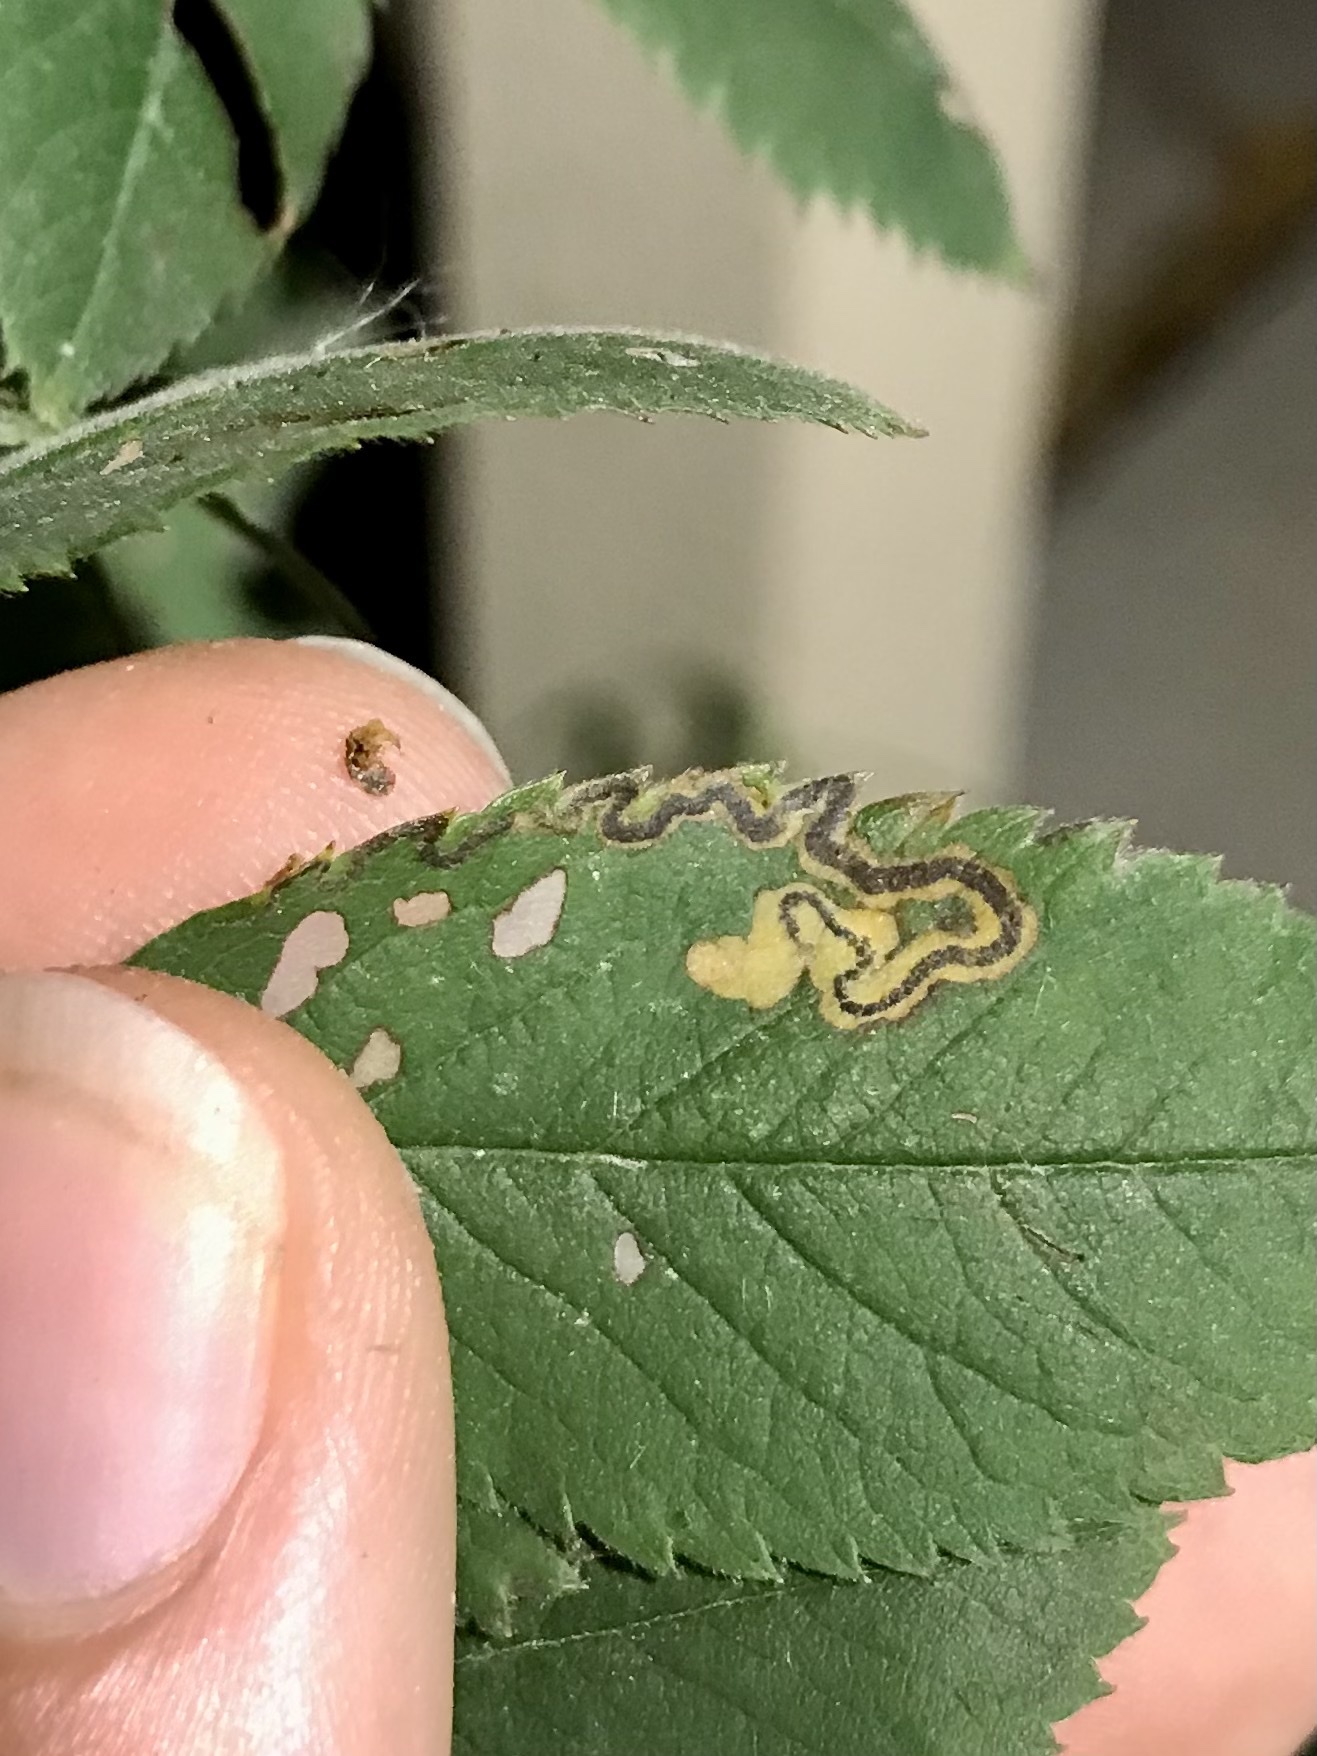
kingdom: Animalia
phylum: Arthropoda
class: Insecta
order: Lepidoptera
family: Nepticulidae
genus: Stigmella
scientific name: Stigmella rosaefoliella
